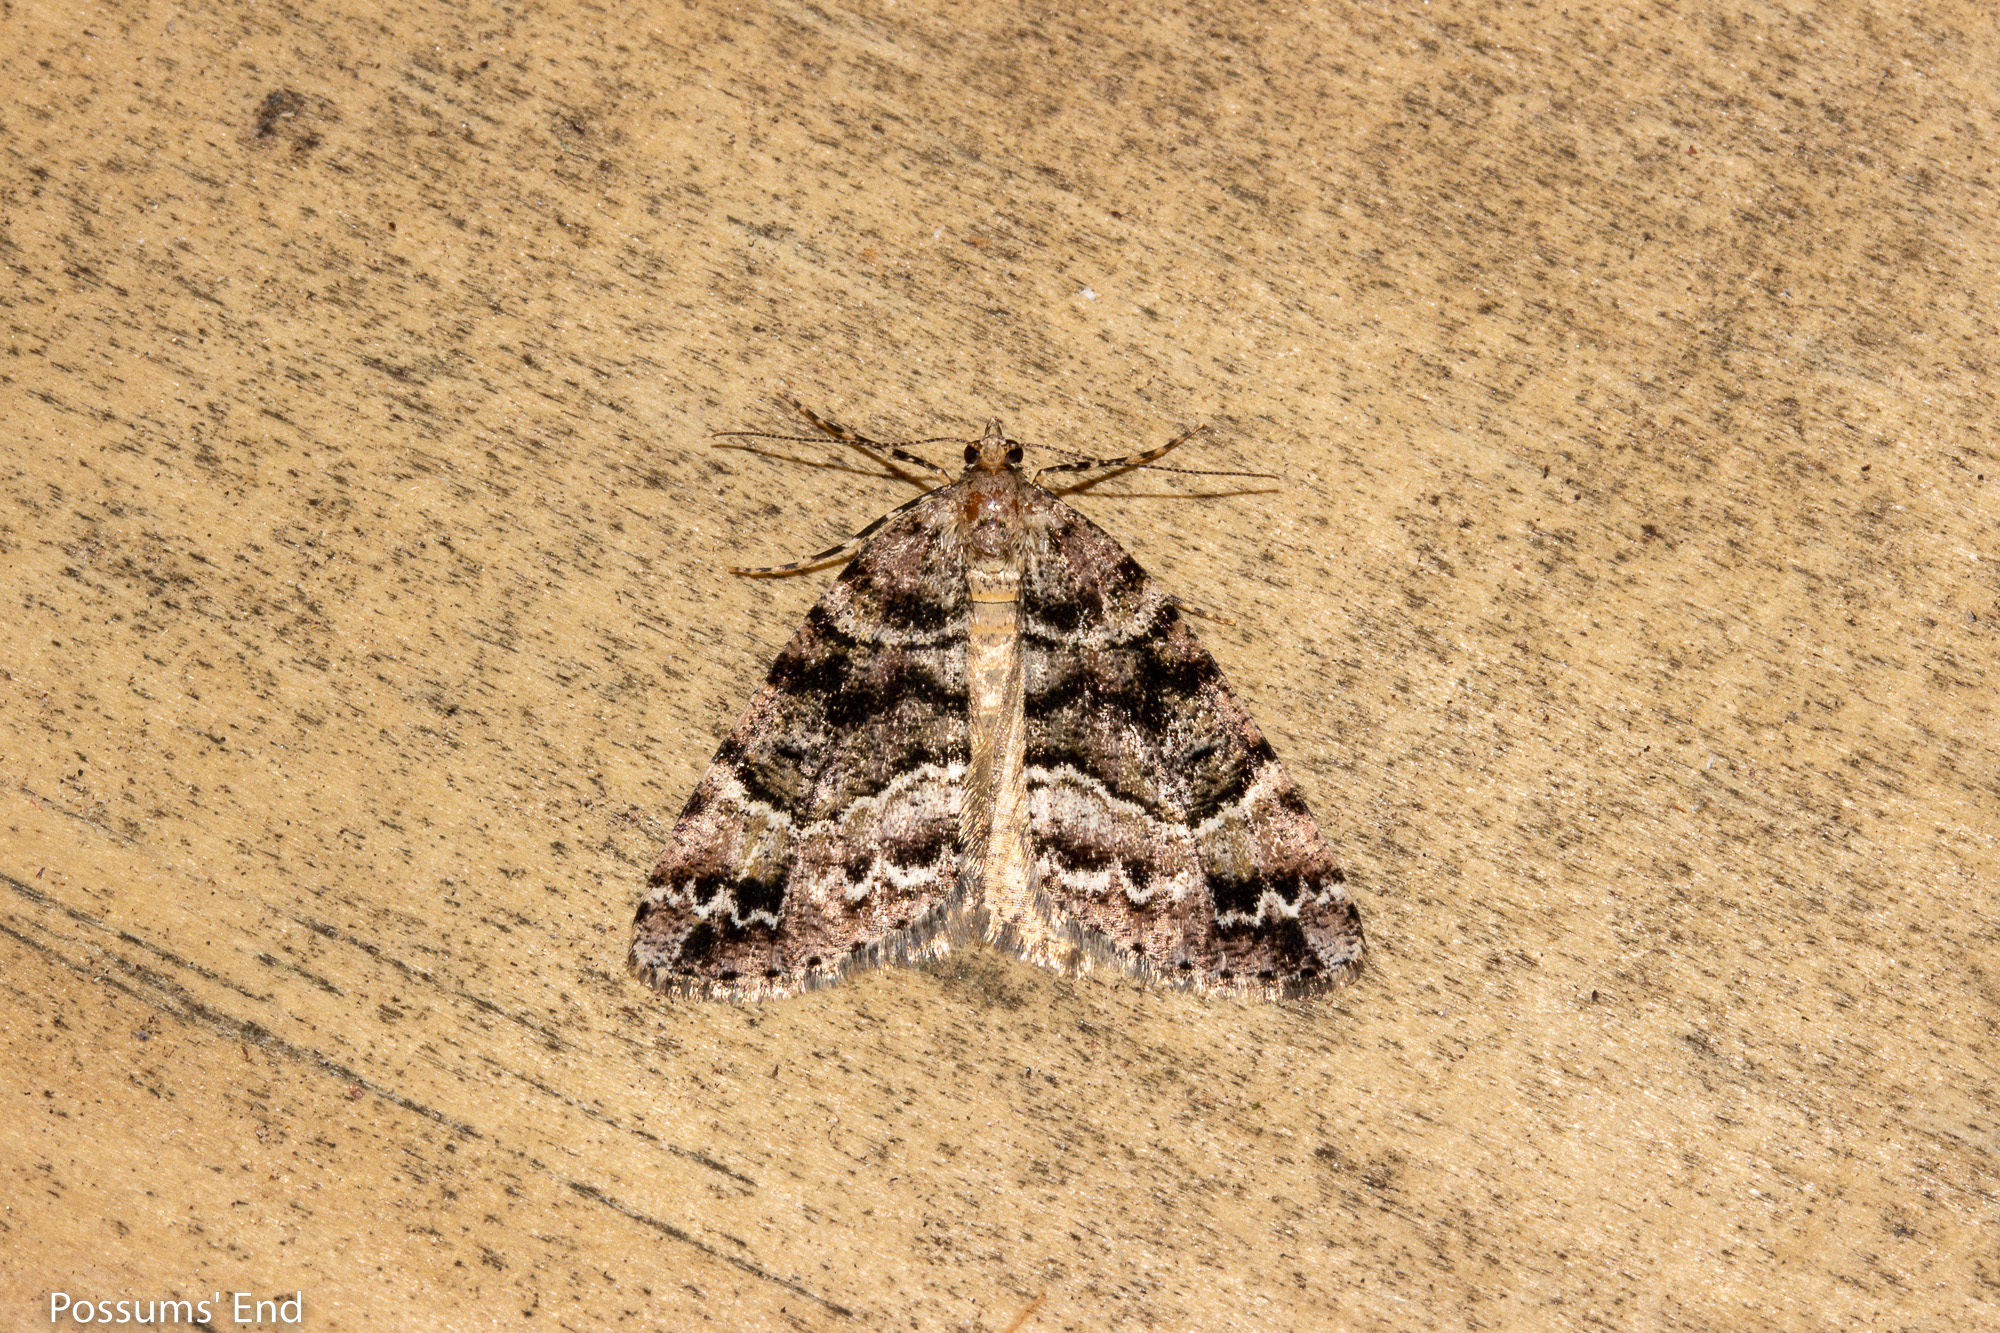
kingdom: Animalia
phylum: Arthropoda
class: Insecta
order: Lepidoptera
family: Geometridae
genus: Pseudocoremia
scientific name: Pseudocoremia productata
